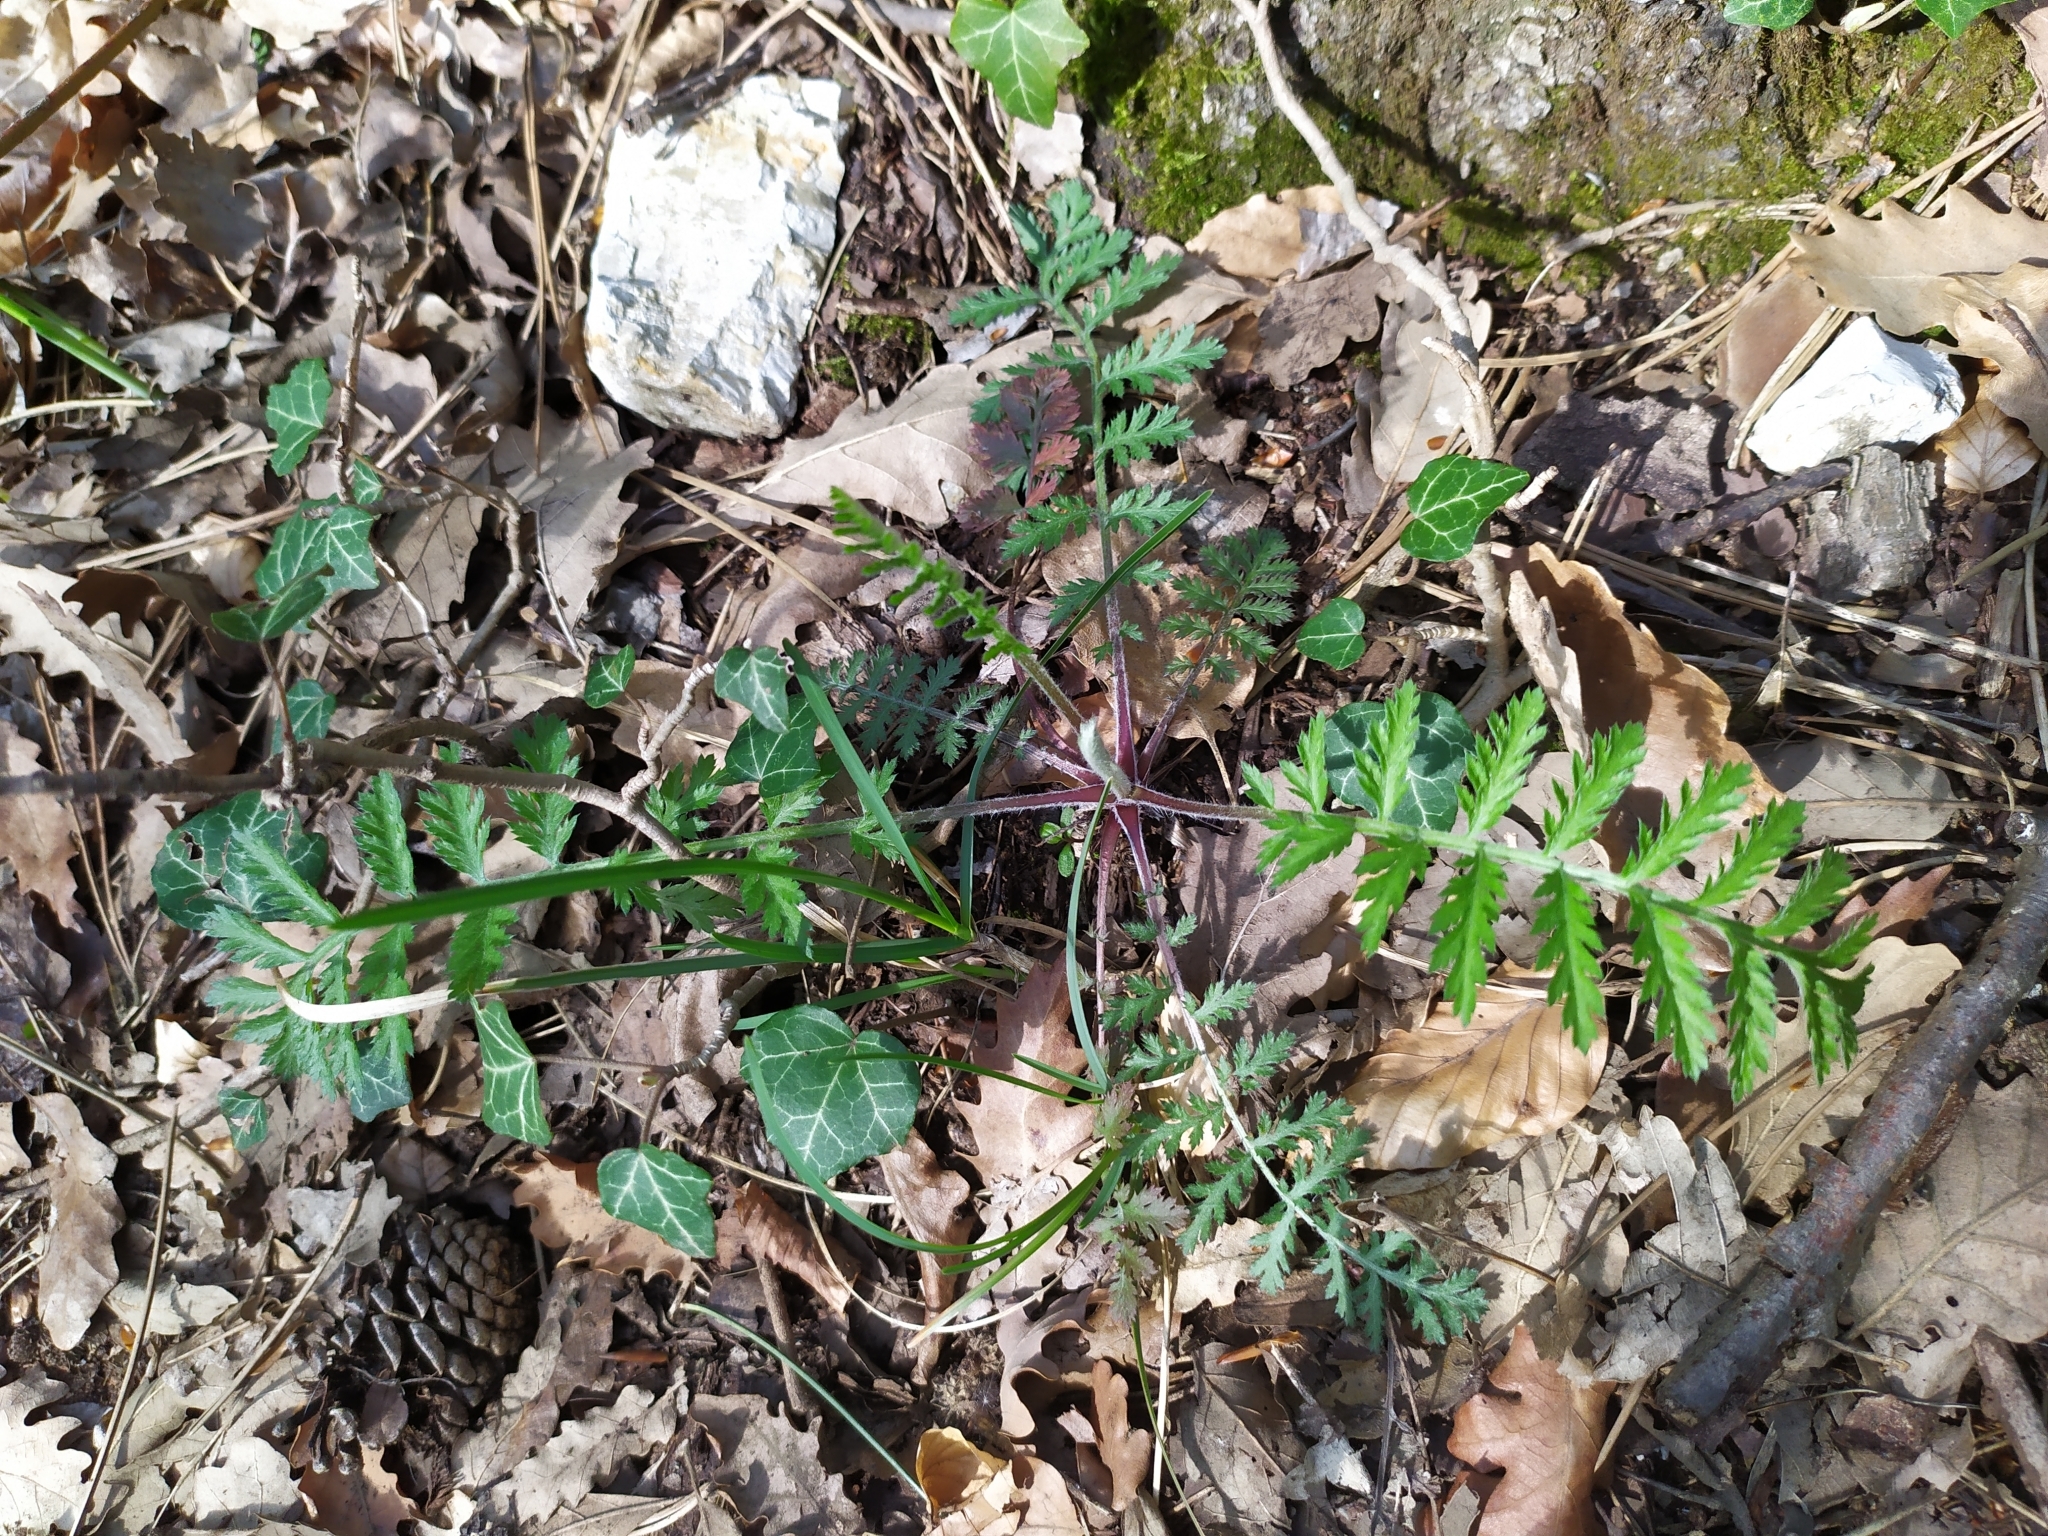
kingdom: Plantae
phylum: Tracheophyta
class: Magnoliopsida
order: Asterales
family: Asteraceae
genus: Tanacetum
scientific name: Tanacetum corymbosum
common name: Scentless feverfew
